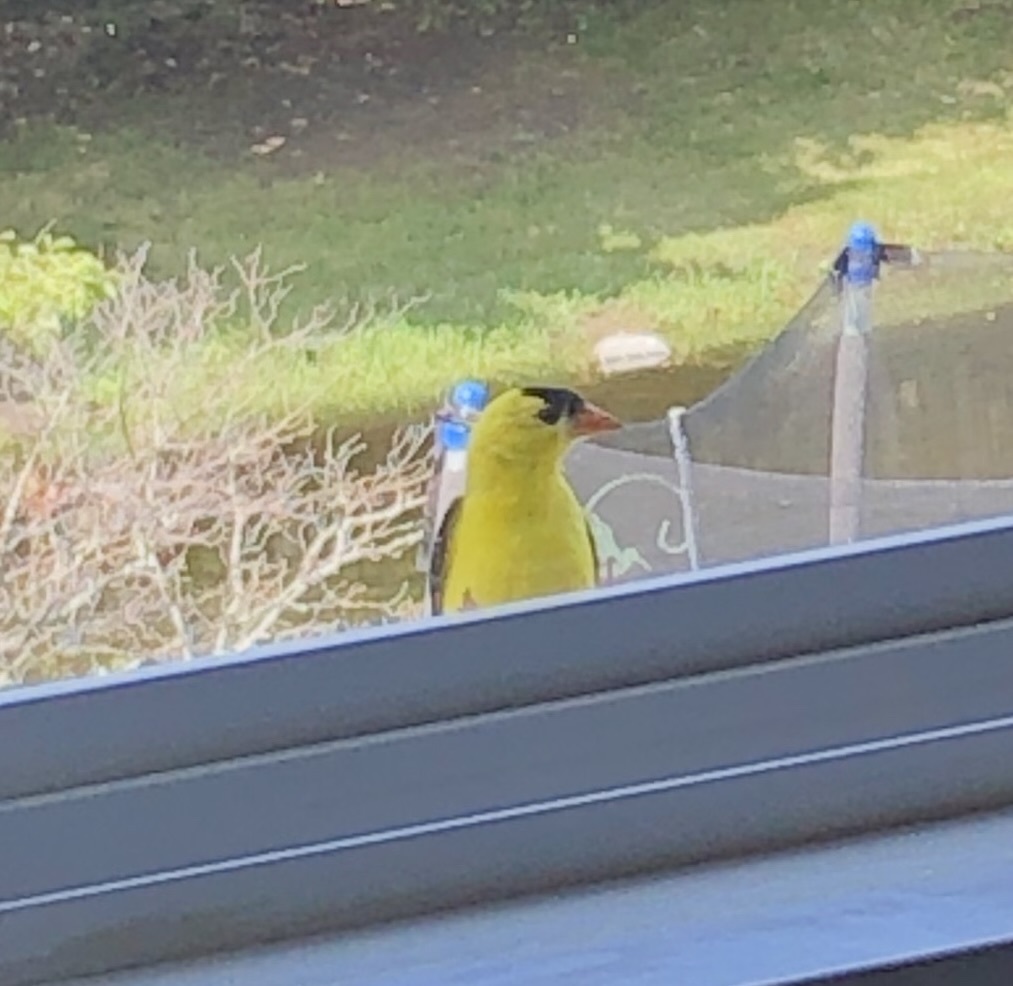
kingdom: Animalia
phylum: Chordata
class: Aves
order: Passeriformes
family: Fringillidae
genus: Spinus
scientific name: Spinus tristis
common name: American goldfinch
